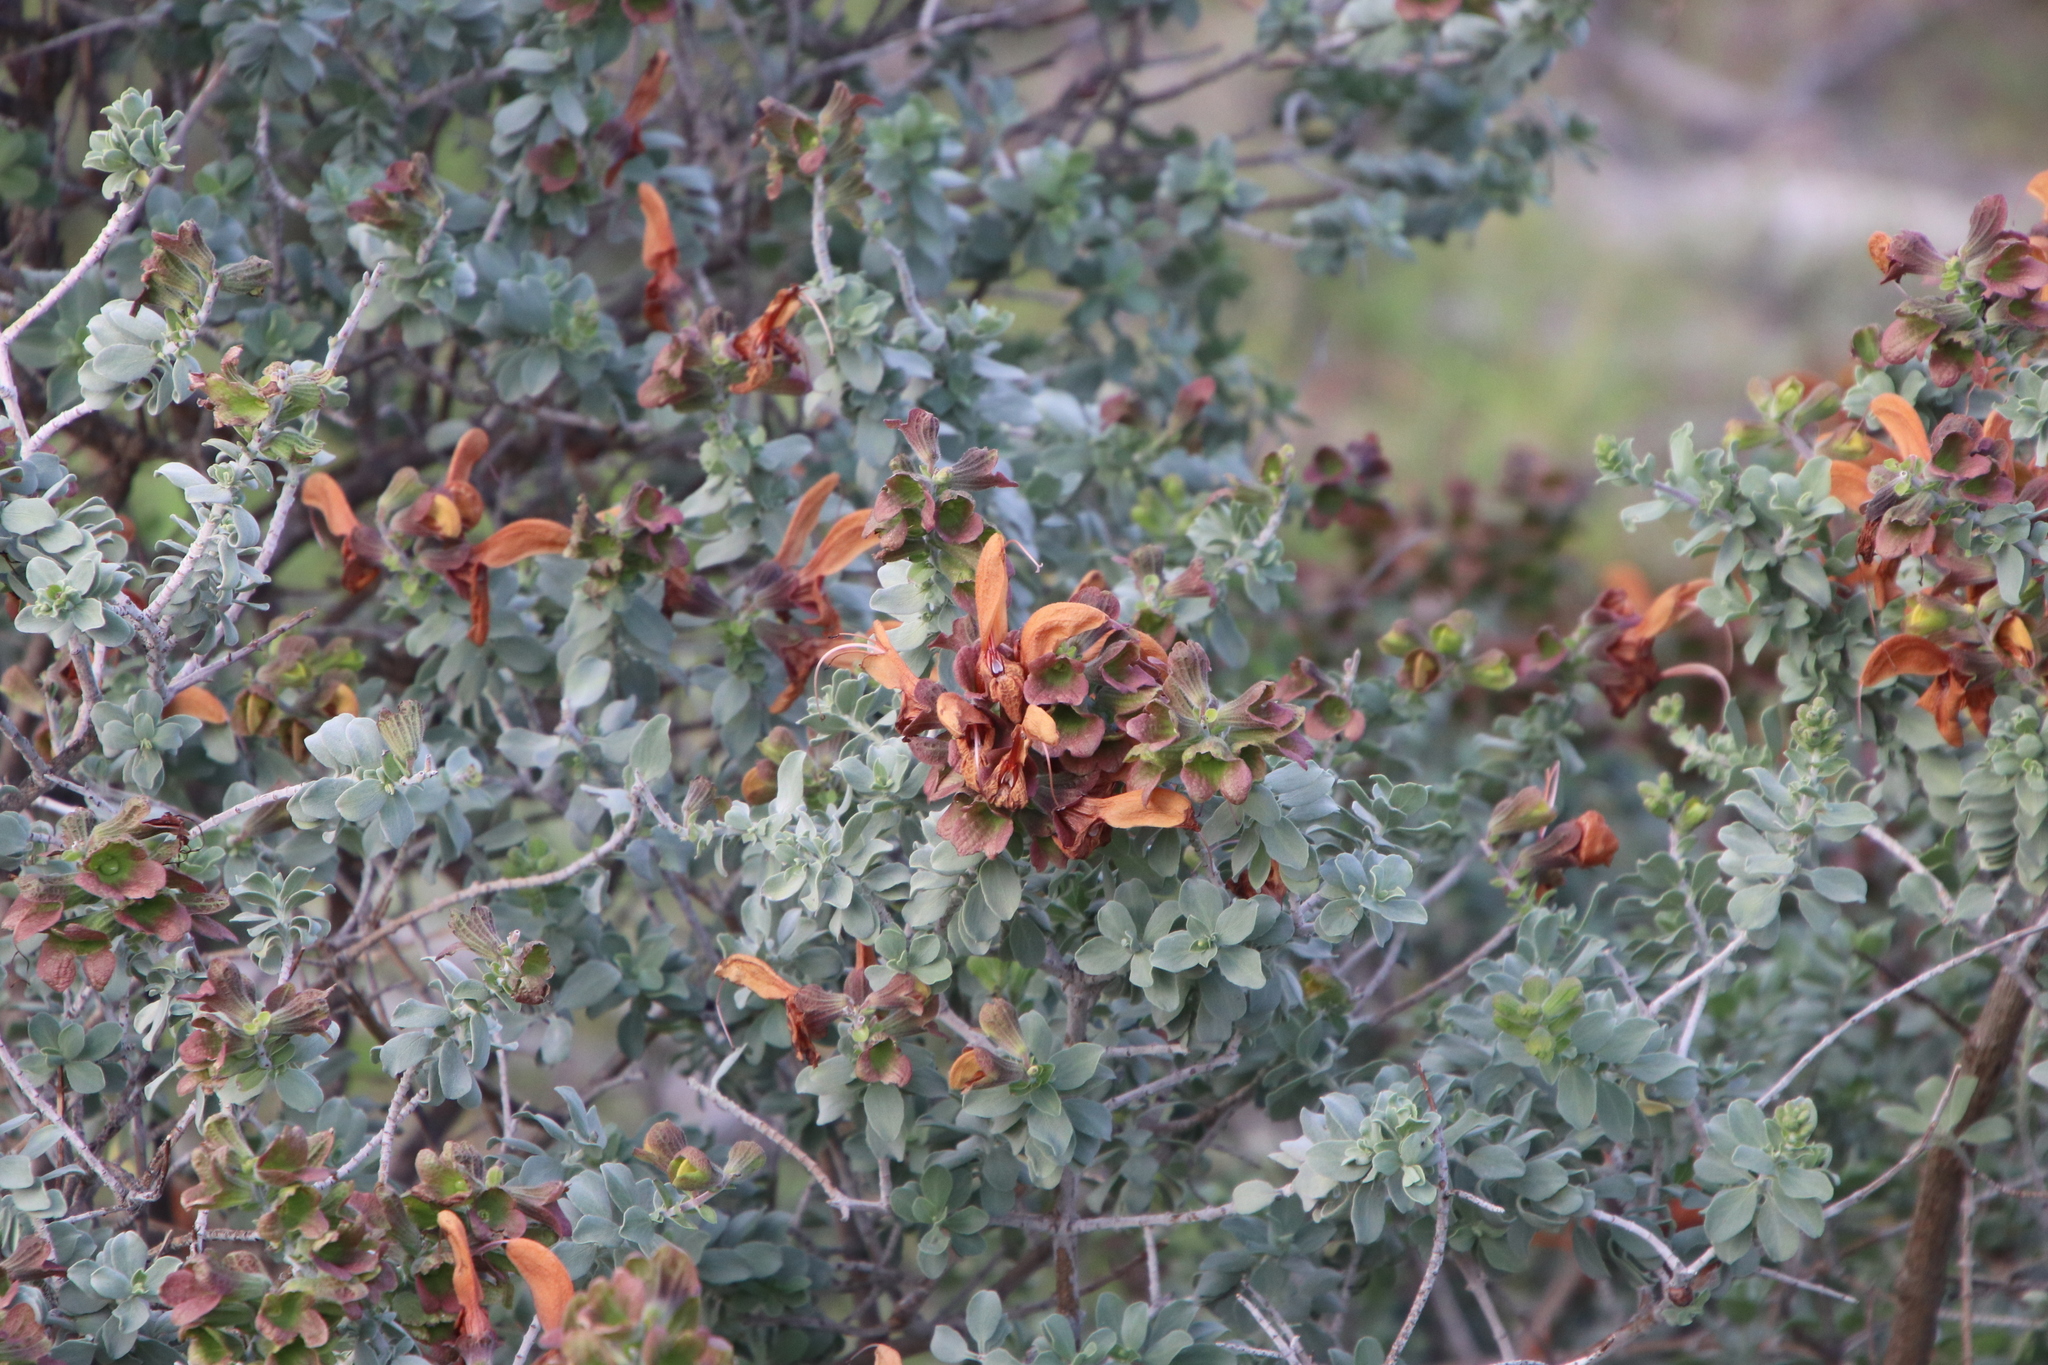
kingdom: Plantae
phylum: Tracheophyta
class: Magnoliopsida
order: Lamiales
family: Lamiaceae
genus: Salvia
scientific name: Salvia aurea
